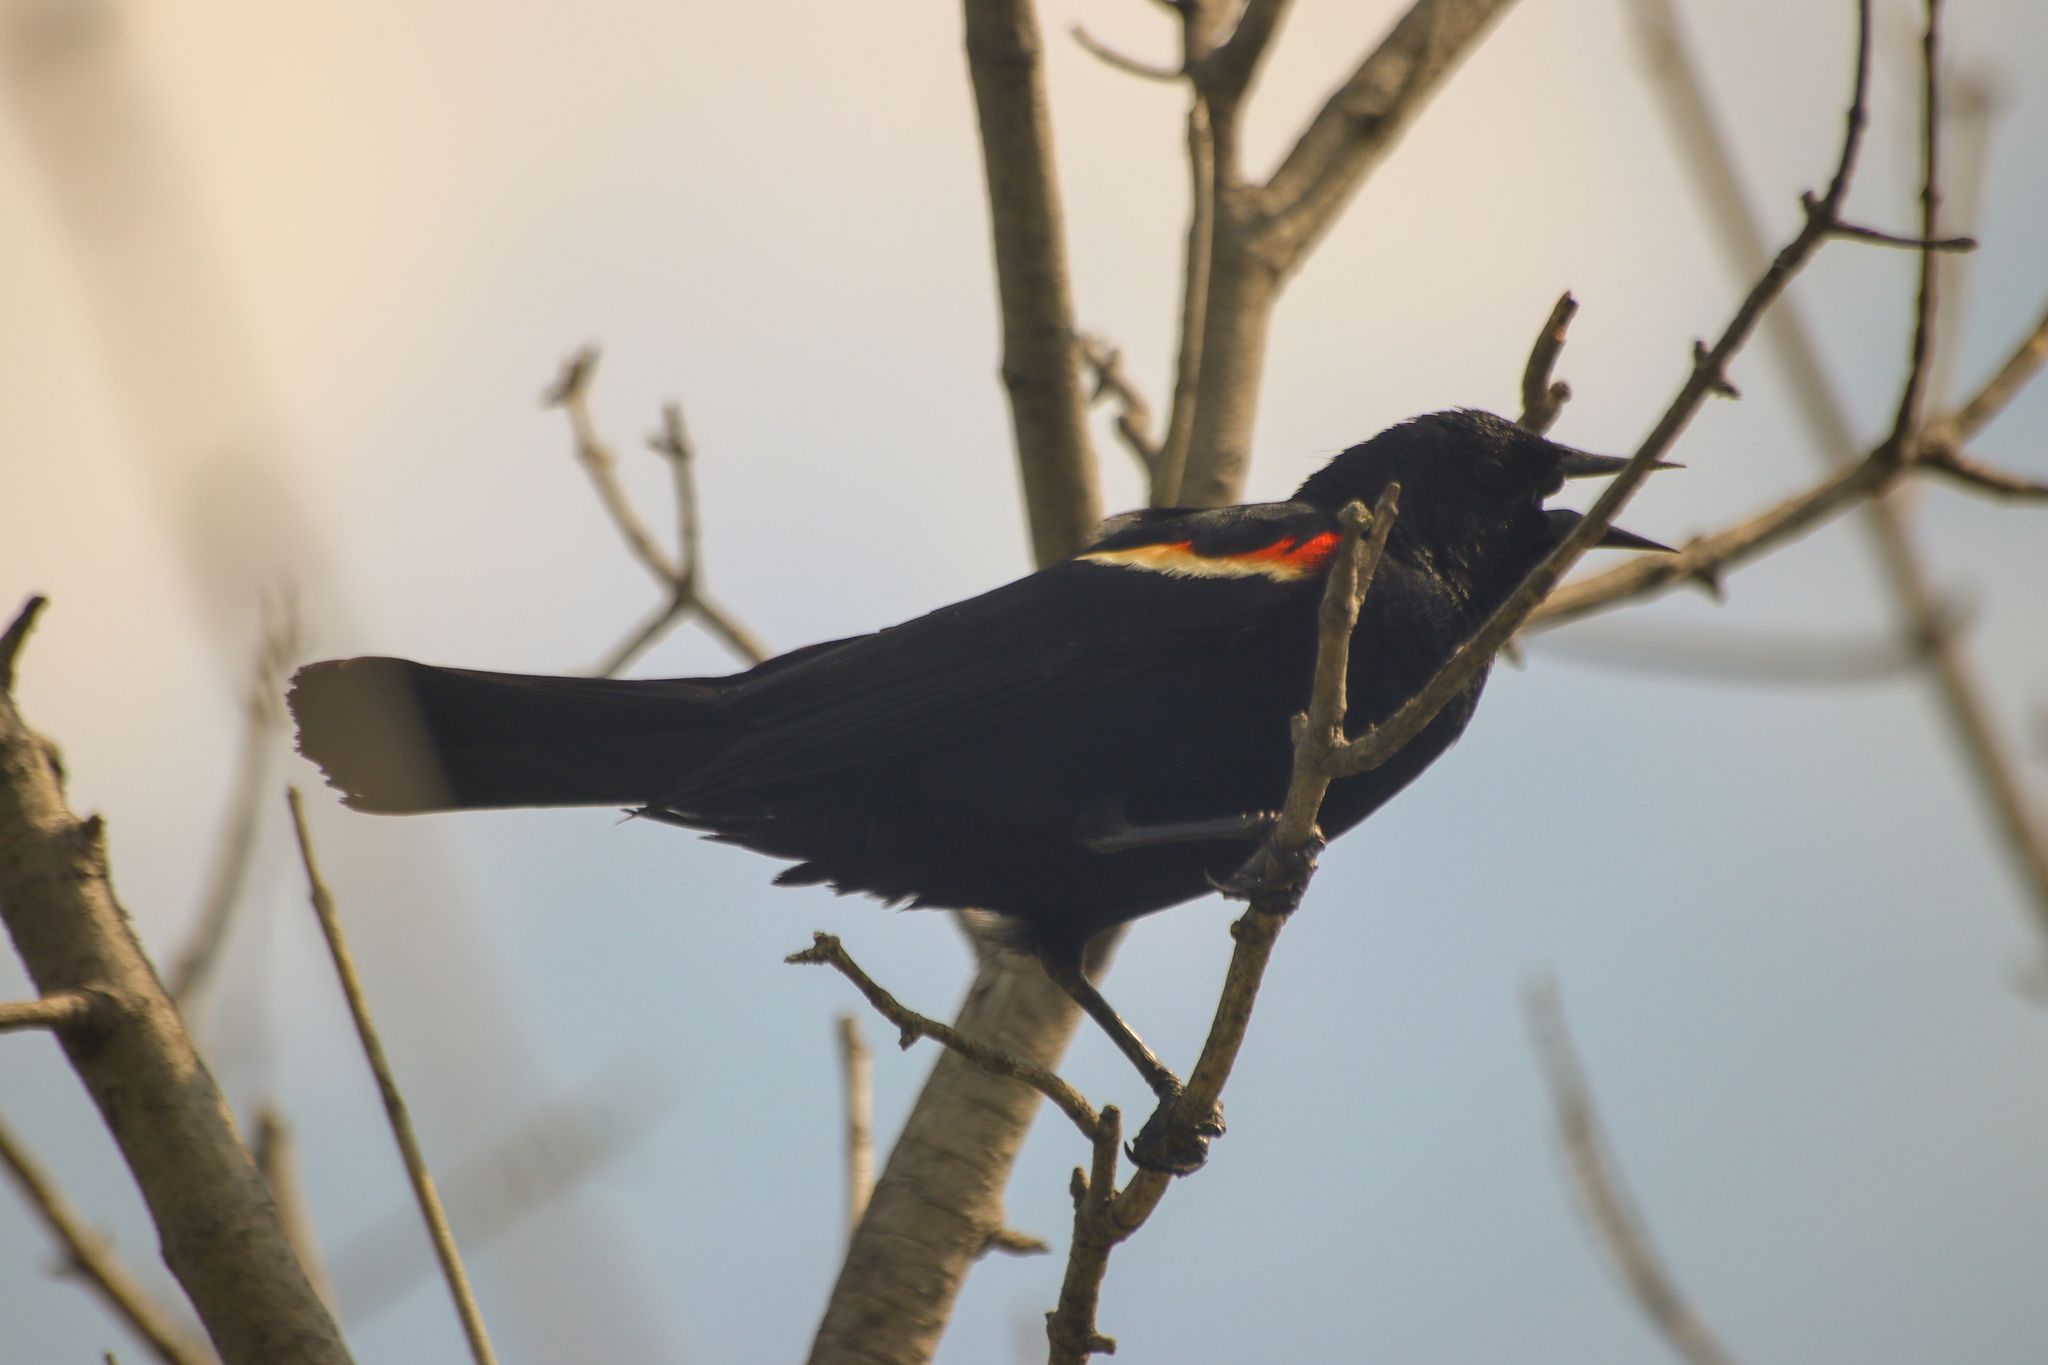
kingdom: Animalia
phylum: Chordata
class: Aves
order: Passeriformes
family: Icteridae
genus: Agelaius
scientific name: Agelaius phoeniceus
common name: Red-winged blackbird
